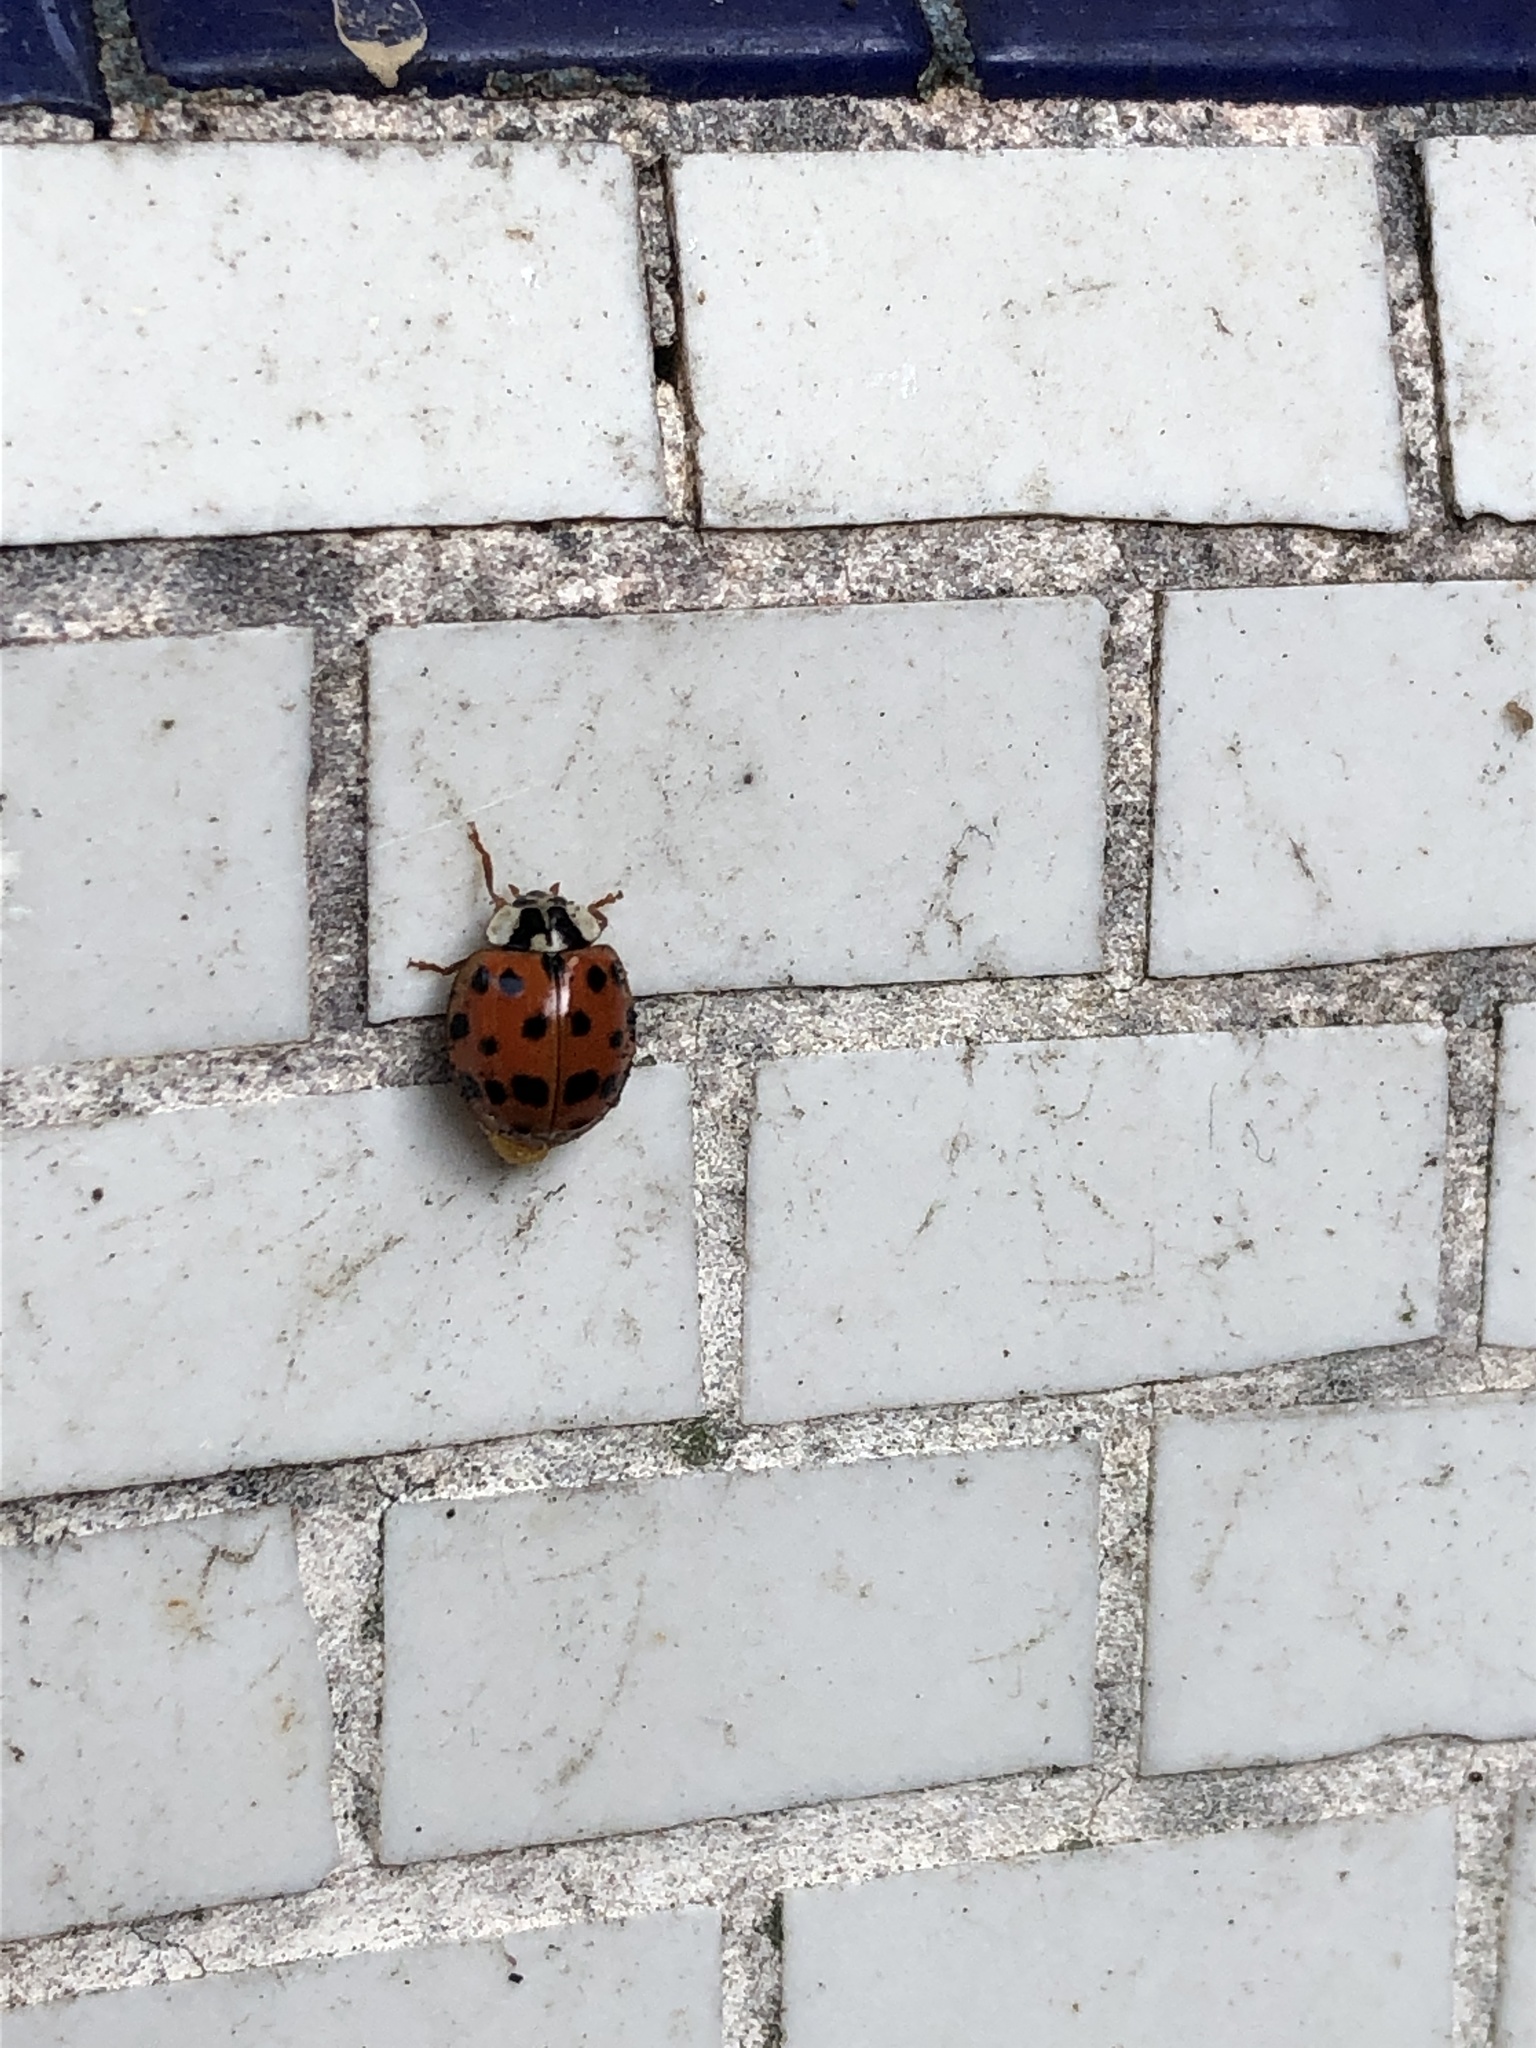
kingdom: Animalia
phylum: Arthropoda
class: Insecta
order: Coleoptera
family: Coccinellidae
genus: Harmonia
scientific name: Harmonia axyridis
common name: Harlequin ladybird
